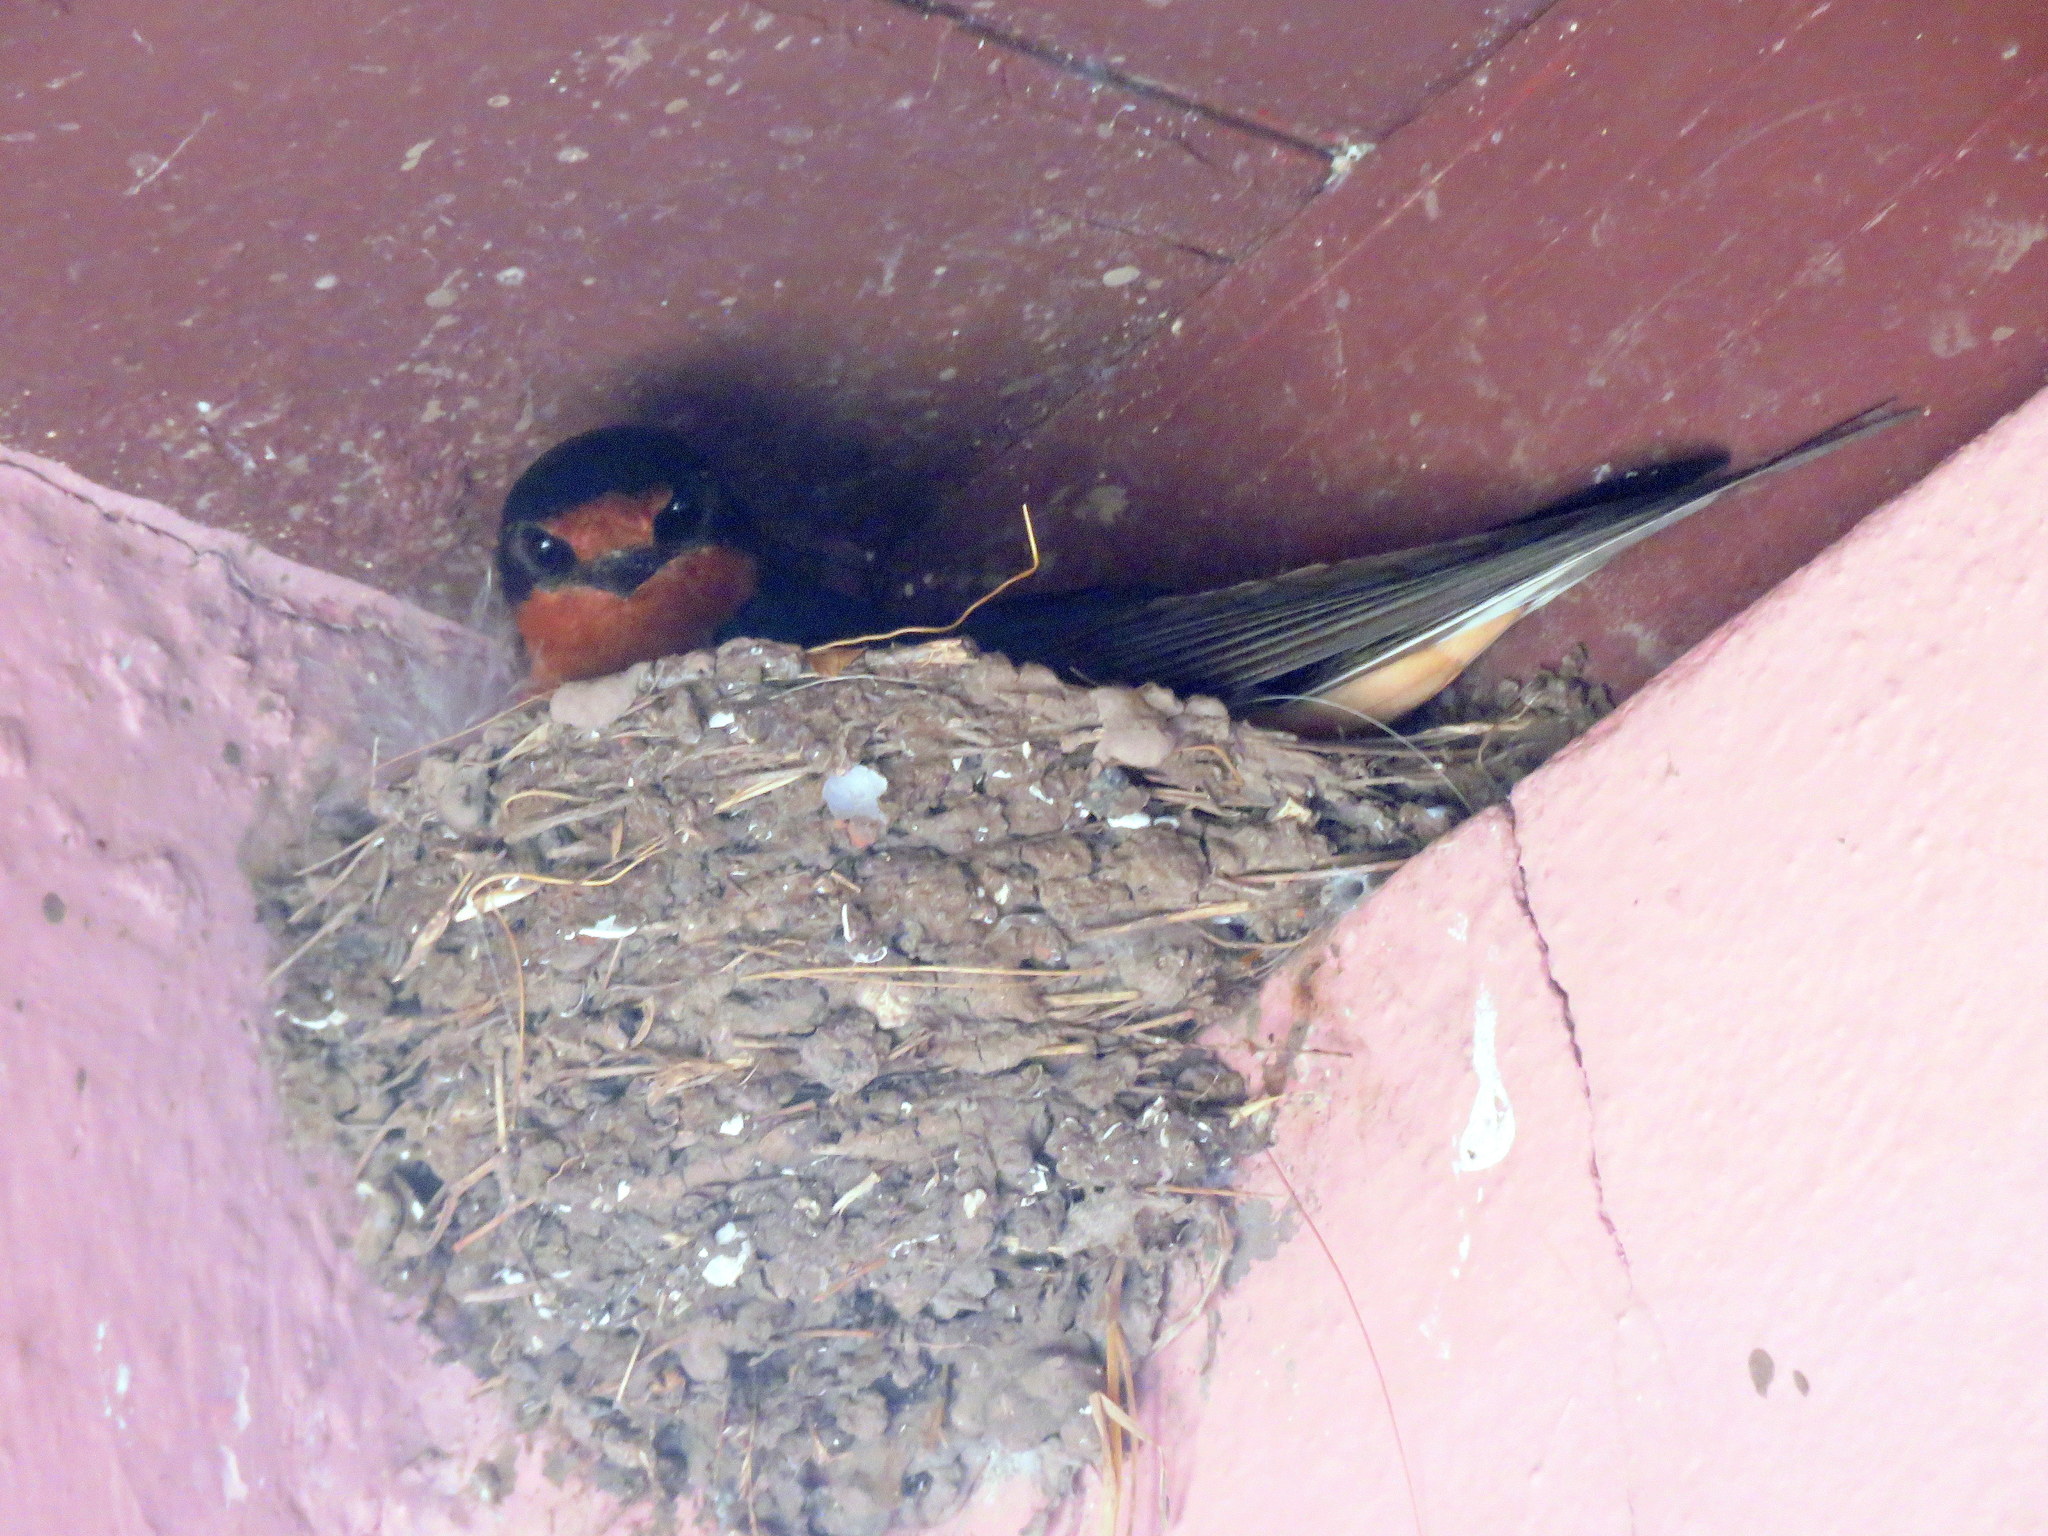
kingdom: Animalia
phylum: Chordata
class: Aves
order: Passeriformes
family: Hirundinidae
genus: Hirundo
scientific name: Hirundo rustica
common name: Barn swallow
